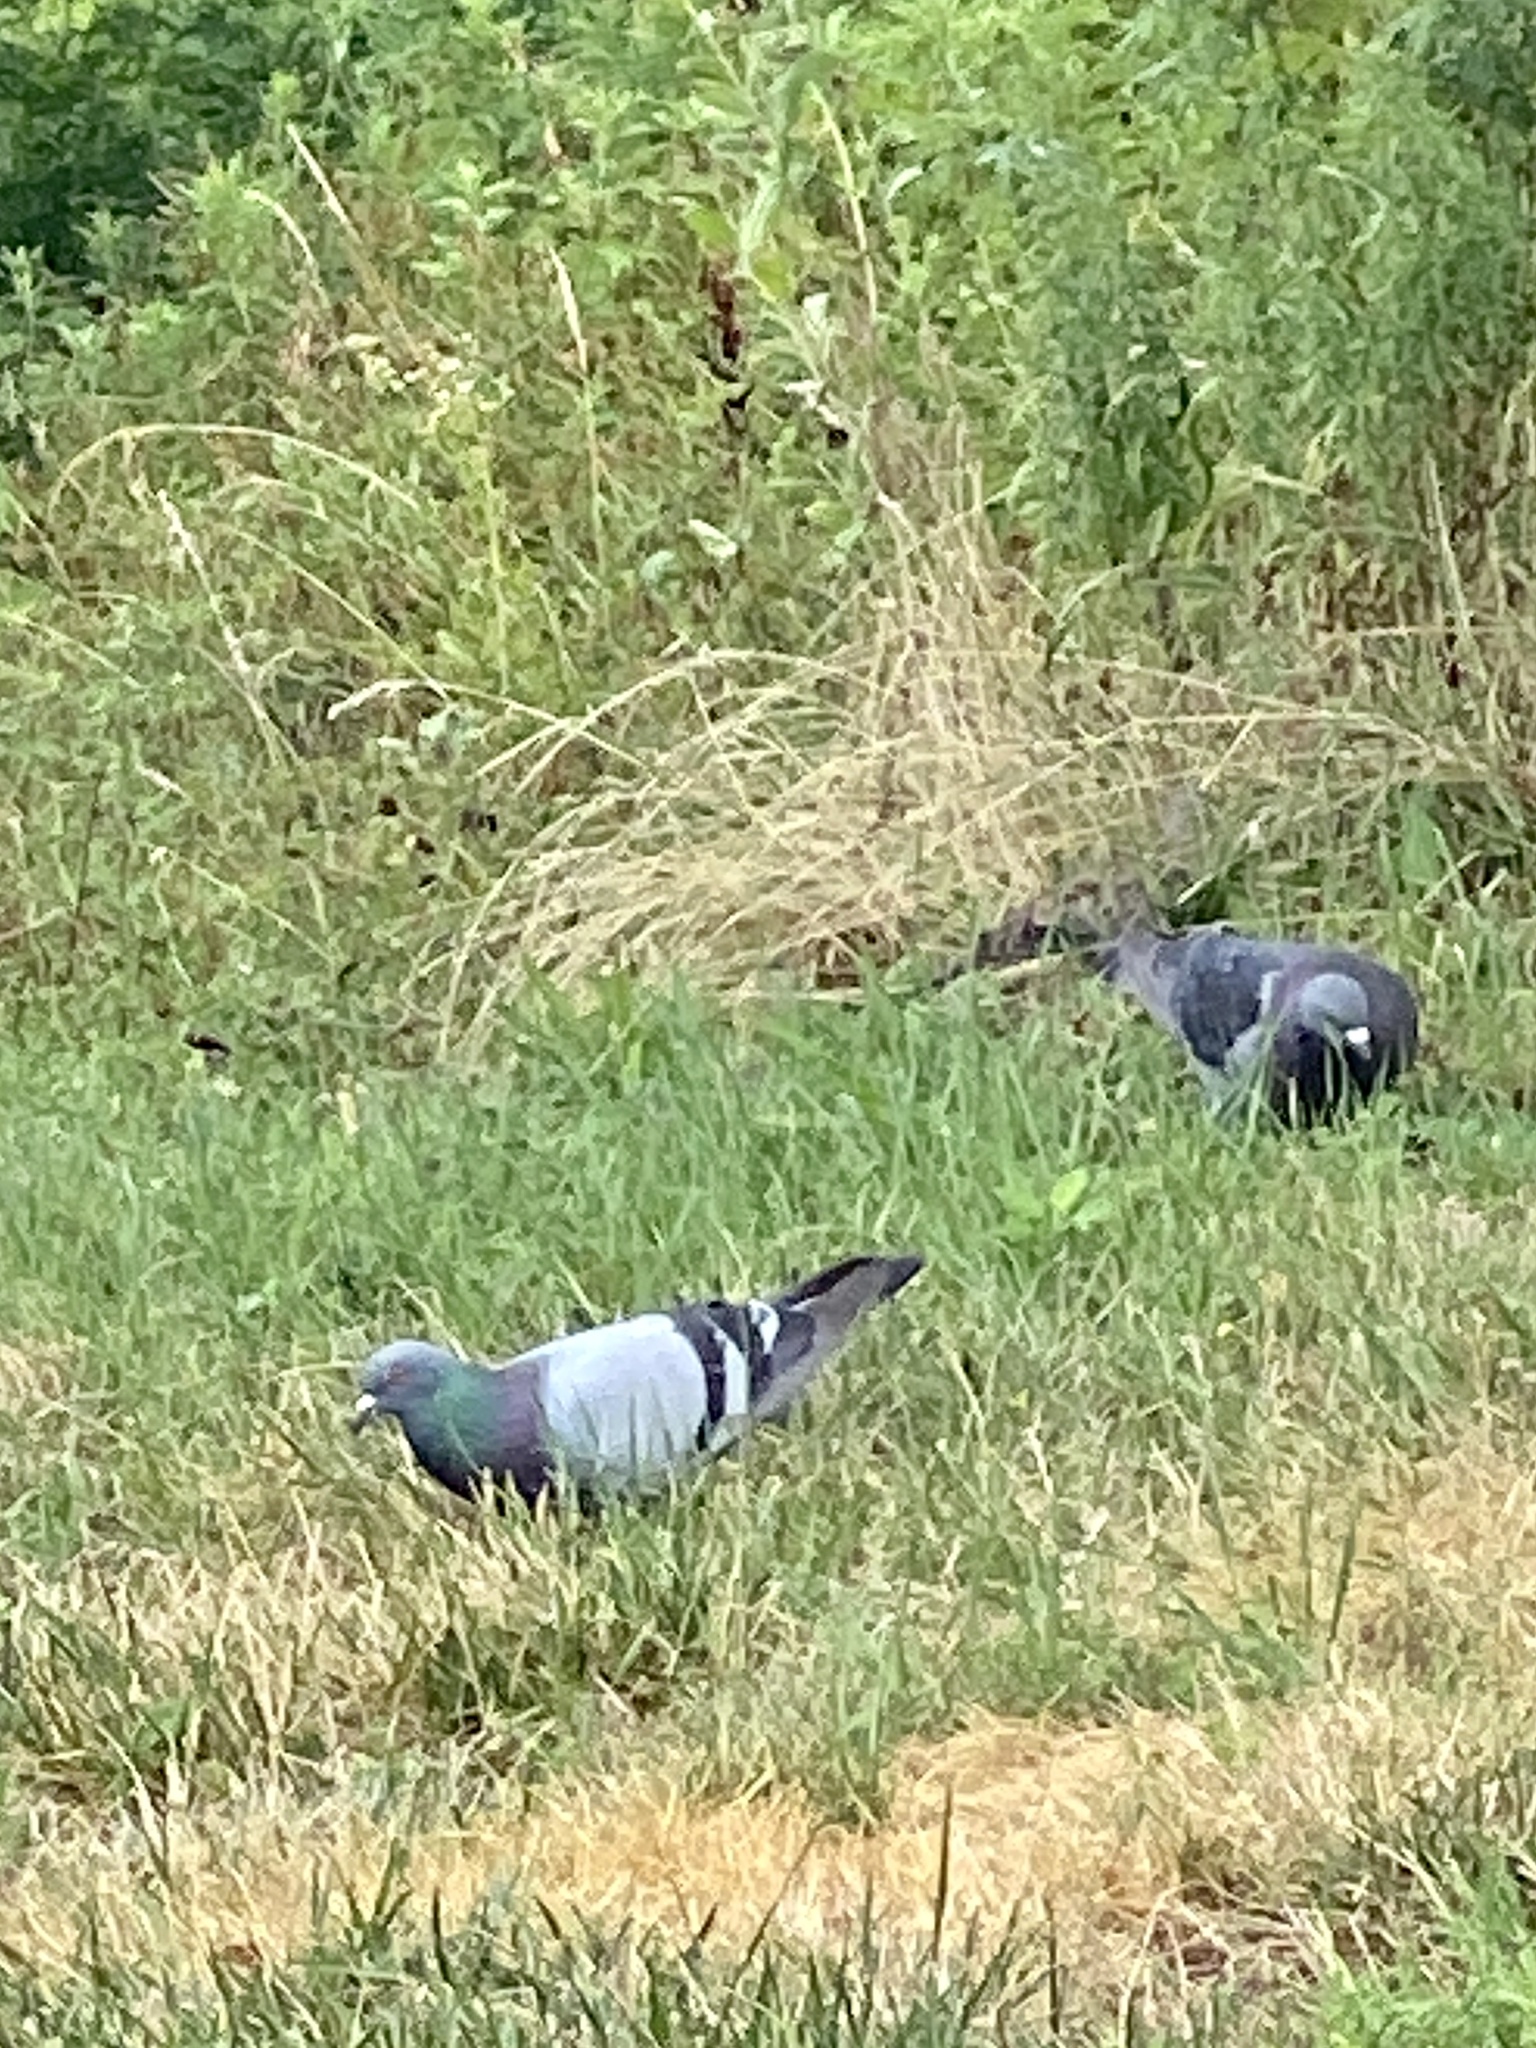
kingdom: Animalia
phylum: Chordata
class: Aves
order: Columbiformes
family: Columbidae
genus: Columba
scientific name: Columba livia
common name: Rock pigeon
